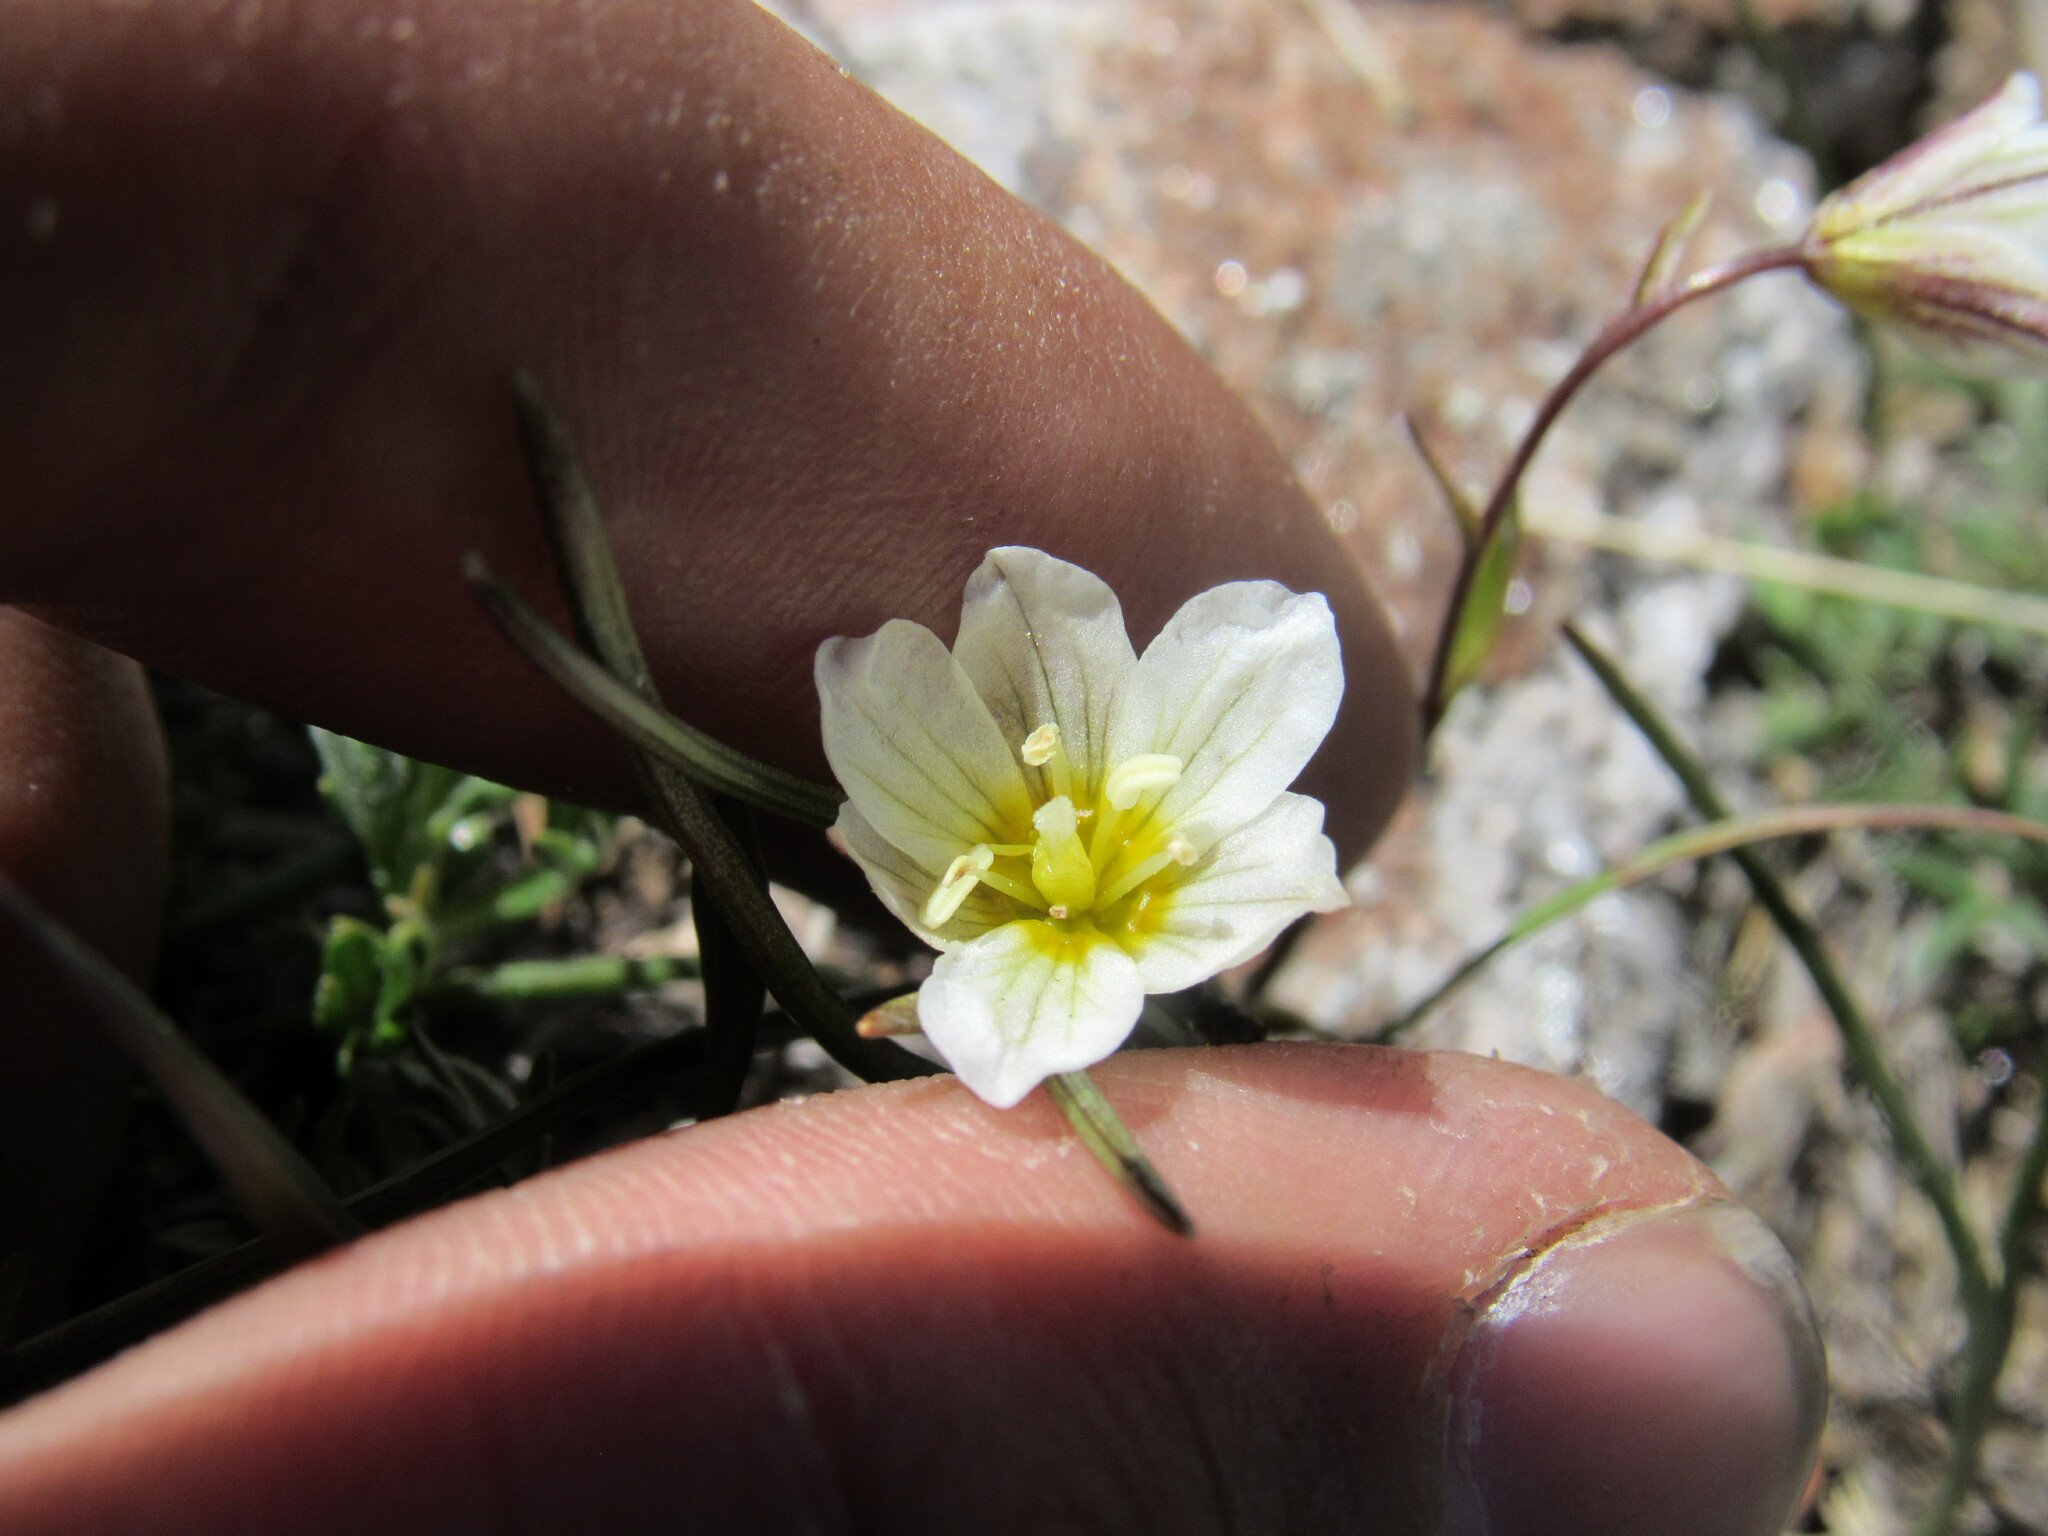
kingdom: Plantae
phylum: Tracheophyta
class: Liliopsida
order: Liliales
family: Liliaceae
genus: Gagea
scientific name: Gagea serotina
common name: Snowdon lily
